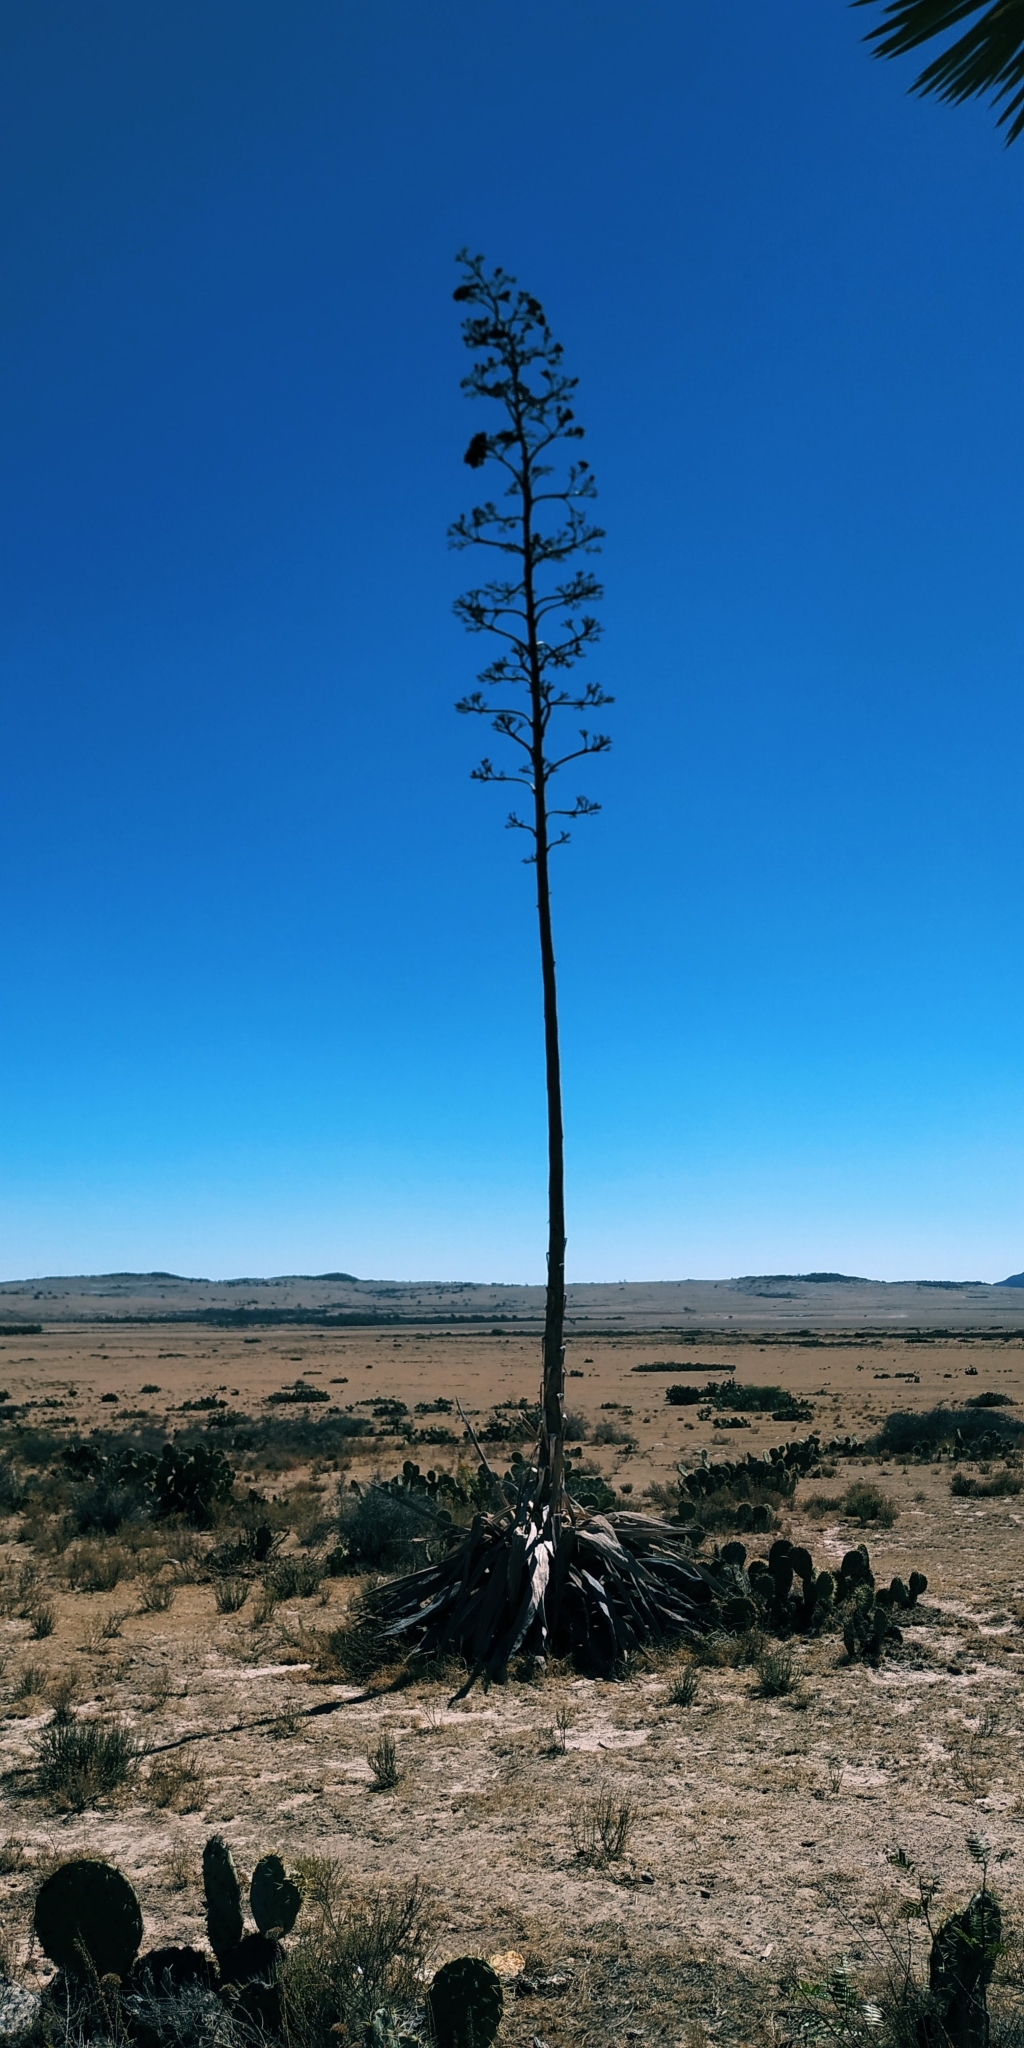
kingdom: Plantae
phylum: Tracheophyta
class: Liliopsida
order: Asparagales
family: Asparagaceae
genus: Agave
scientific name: Agave americana
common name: Centuryplant
